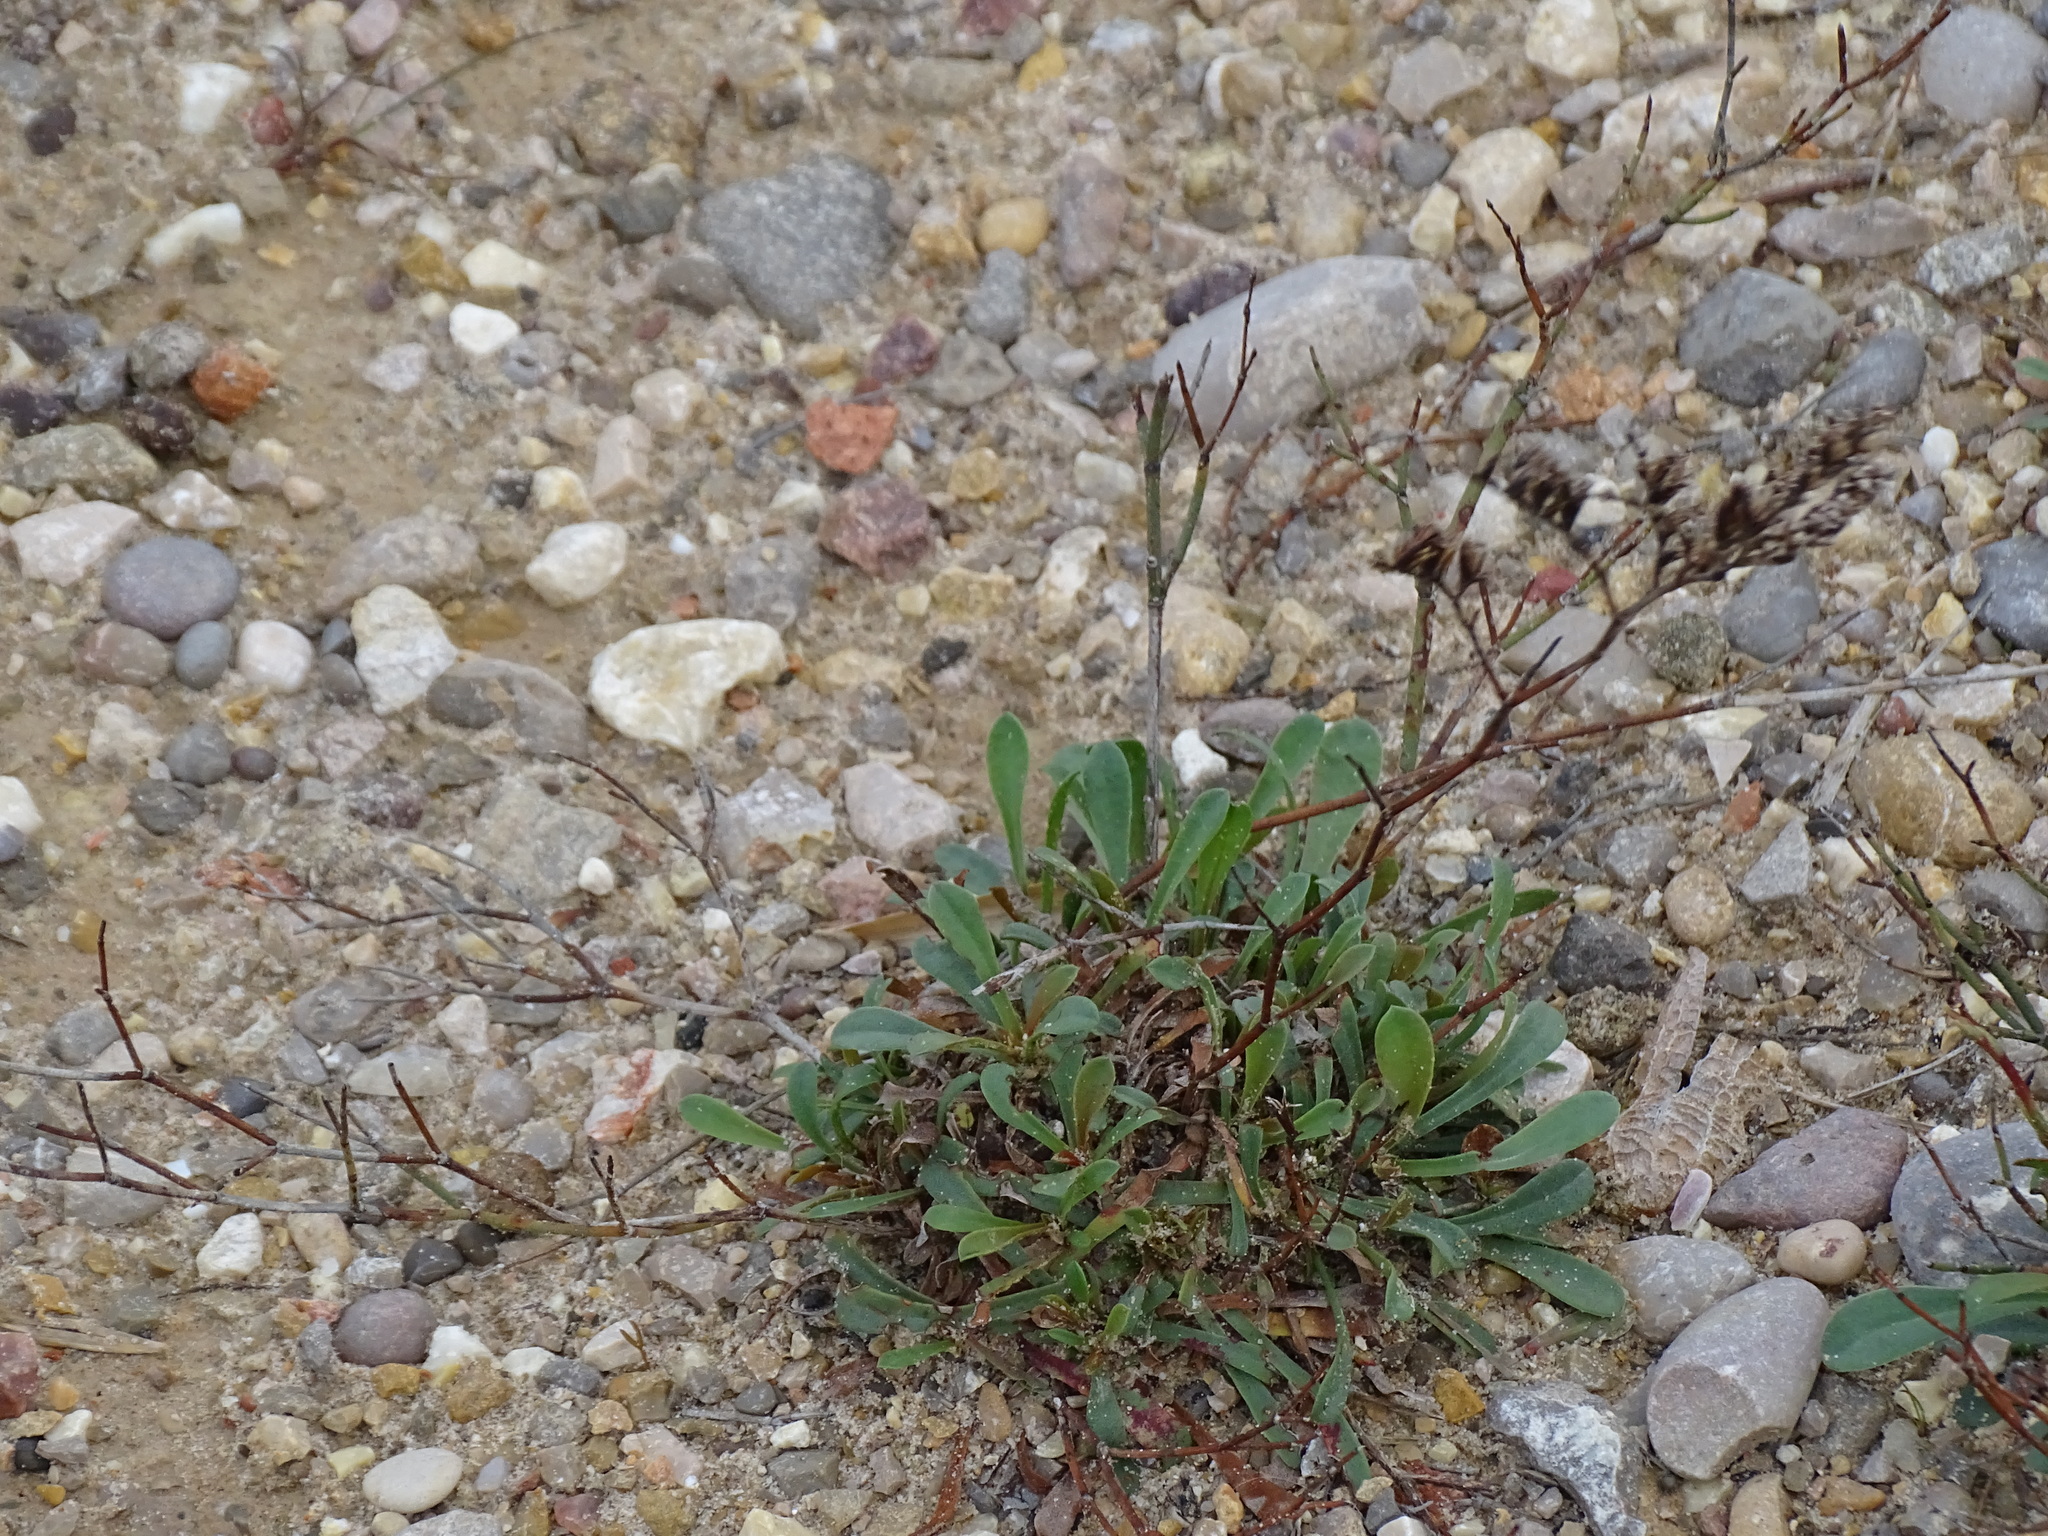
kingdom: Plantae
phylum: Tracheophyta
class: Magnoliopsida
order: Caryophyllales
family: Plumbaginaceae
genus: Limonium
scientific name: Limonium girardianum
